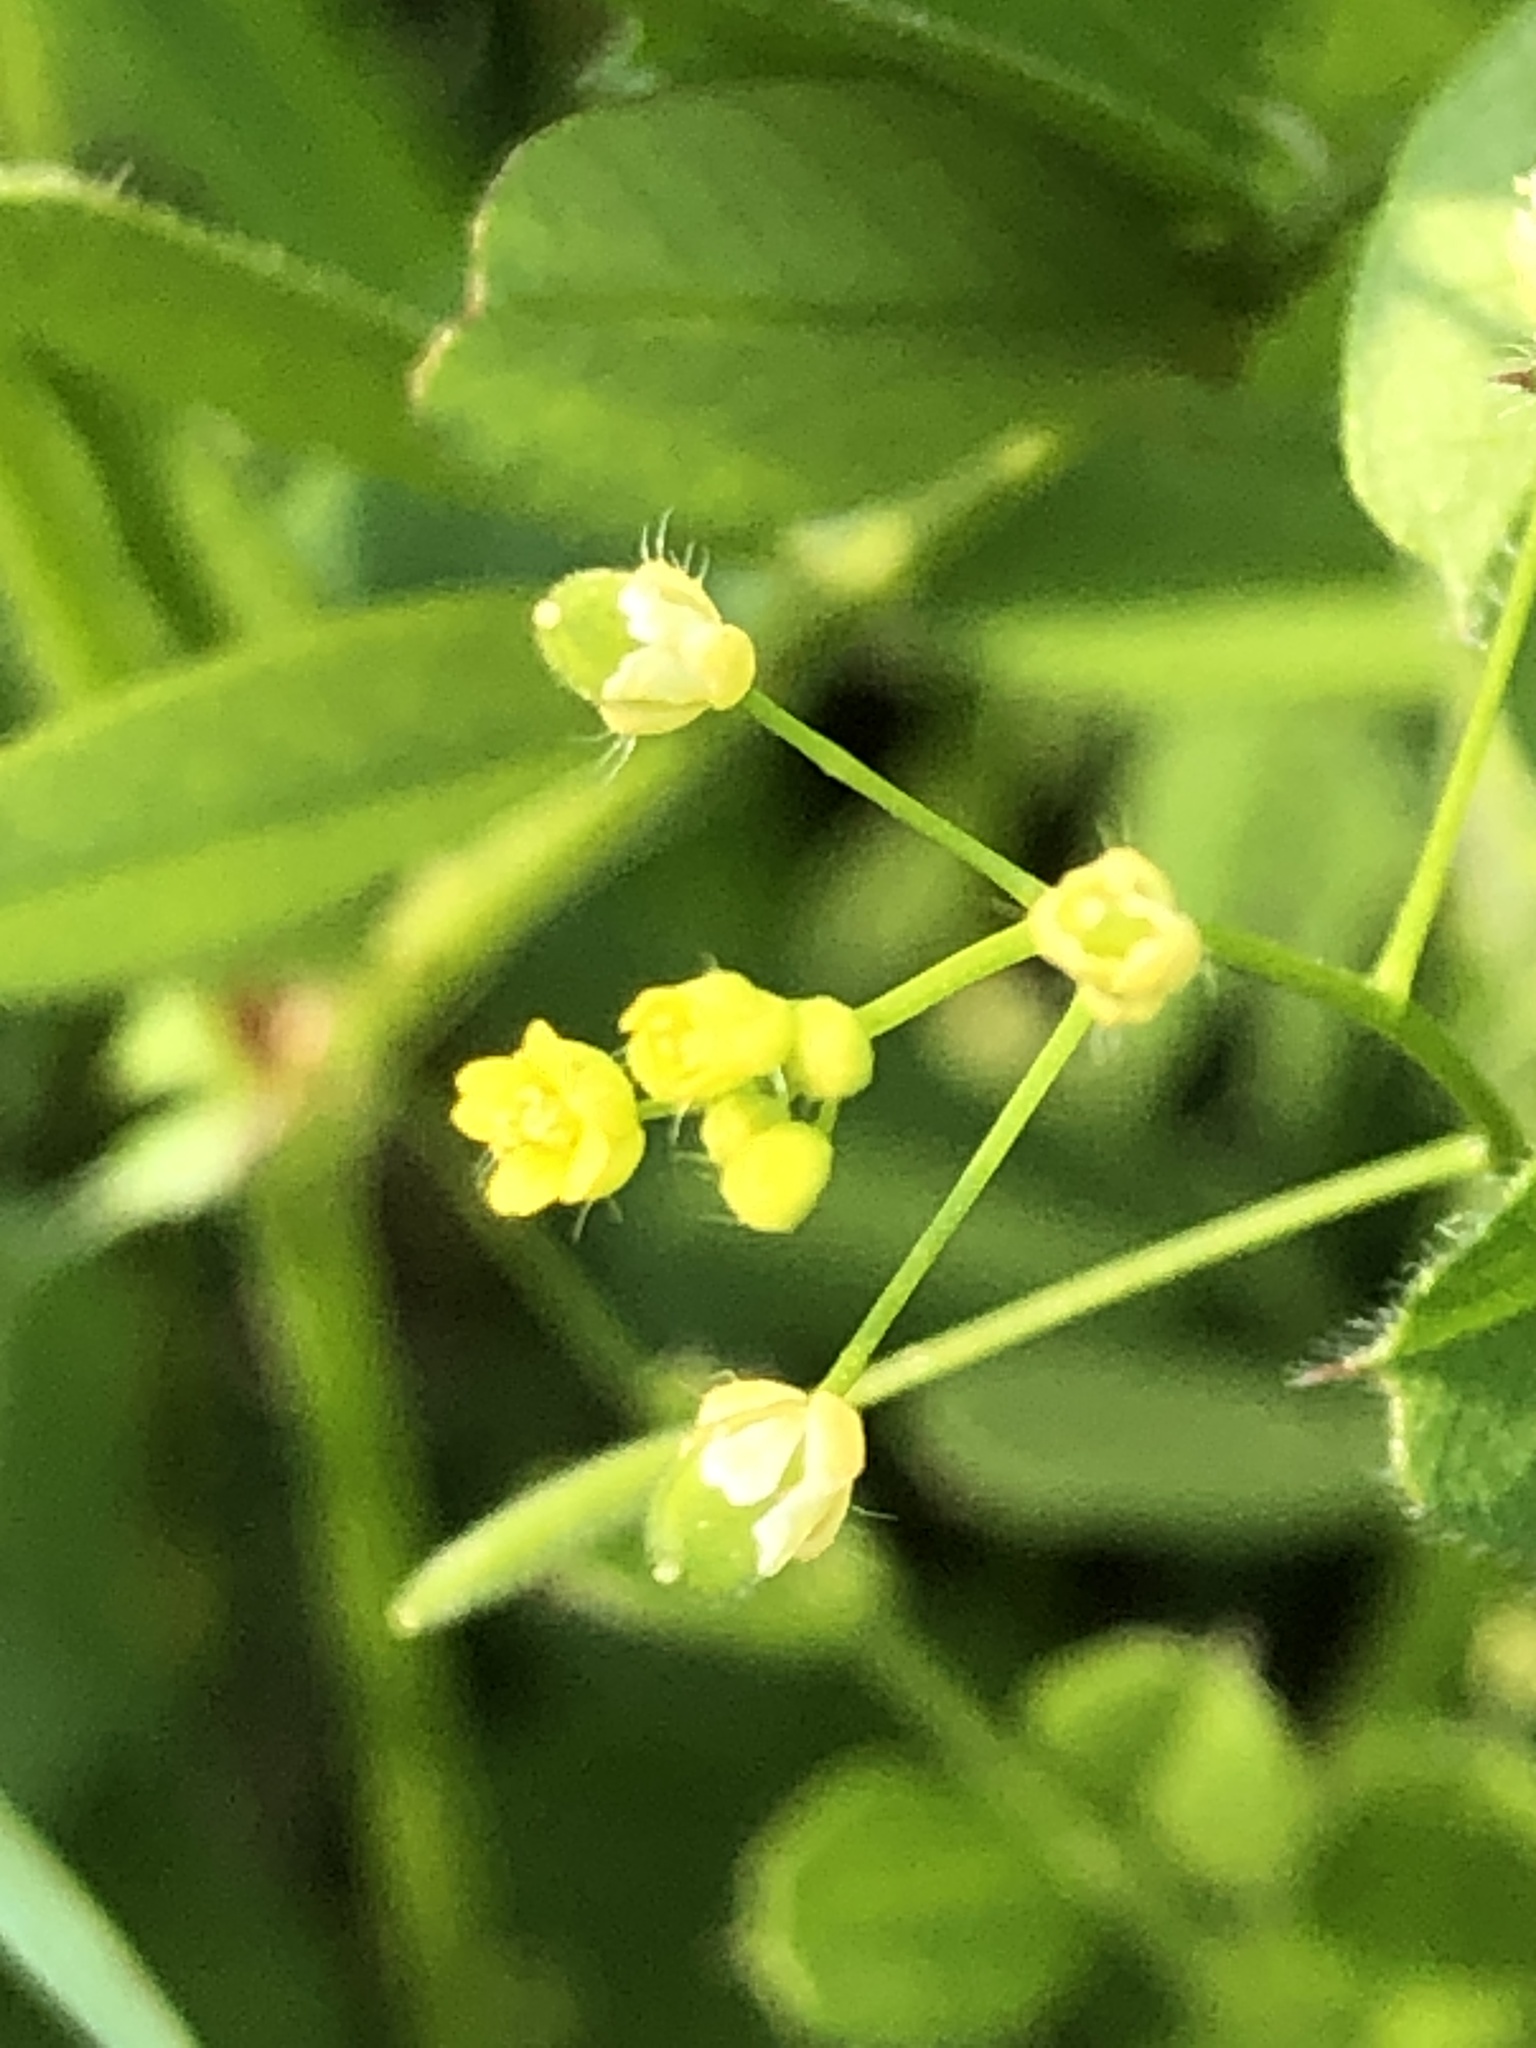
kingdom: Plantae
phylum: Tracheophyta
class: Magnoliopsida
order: Brassicales
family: Brassicaceae
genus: Draba
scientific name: Draba nemorosa
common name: Wood whitlow-grass
